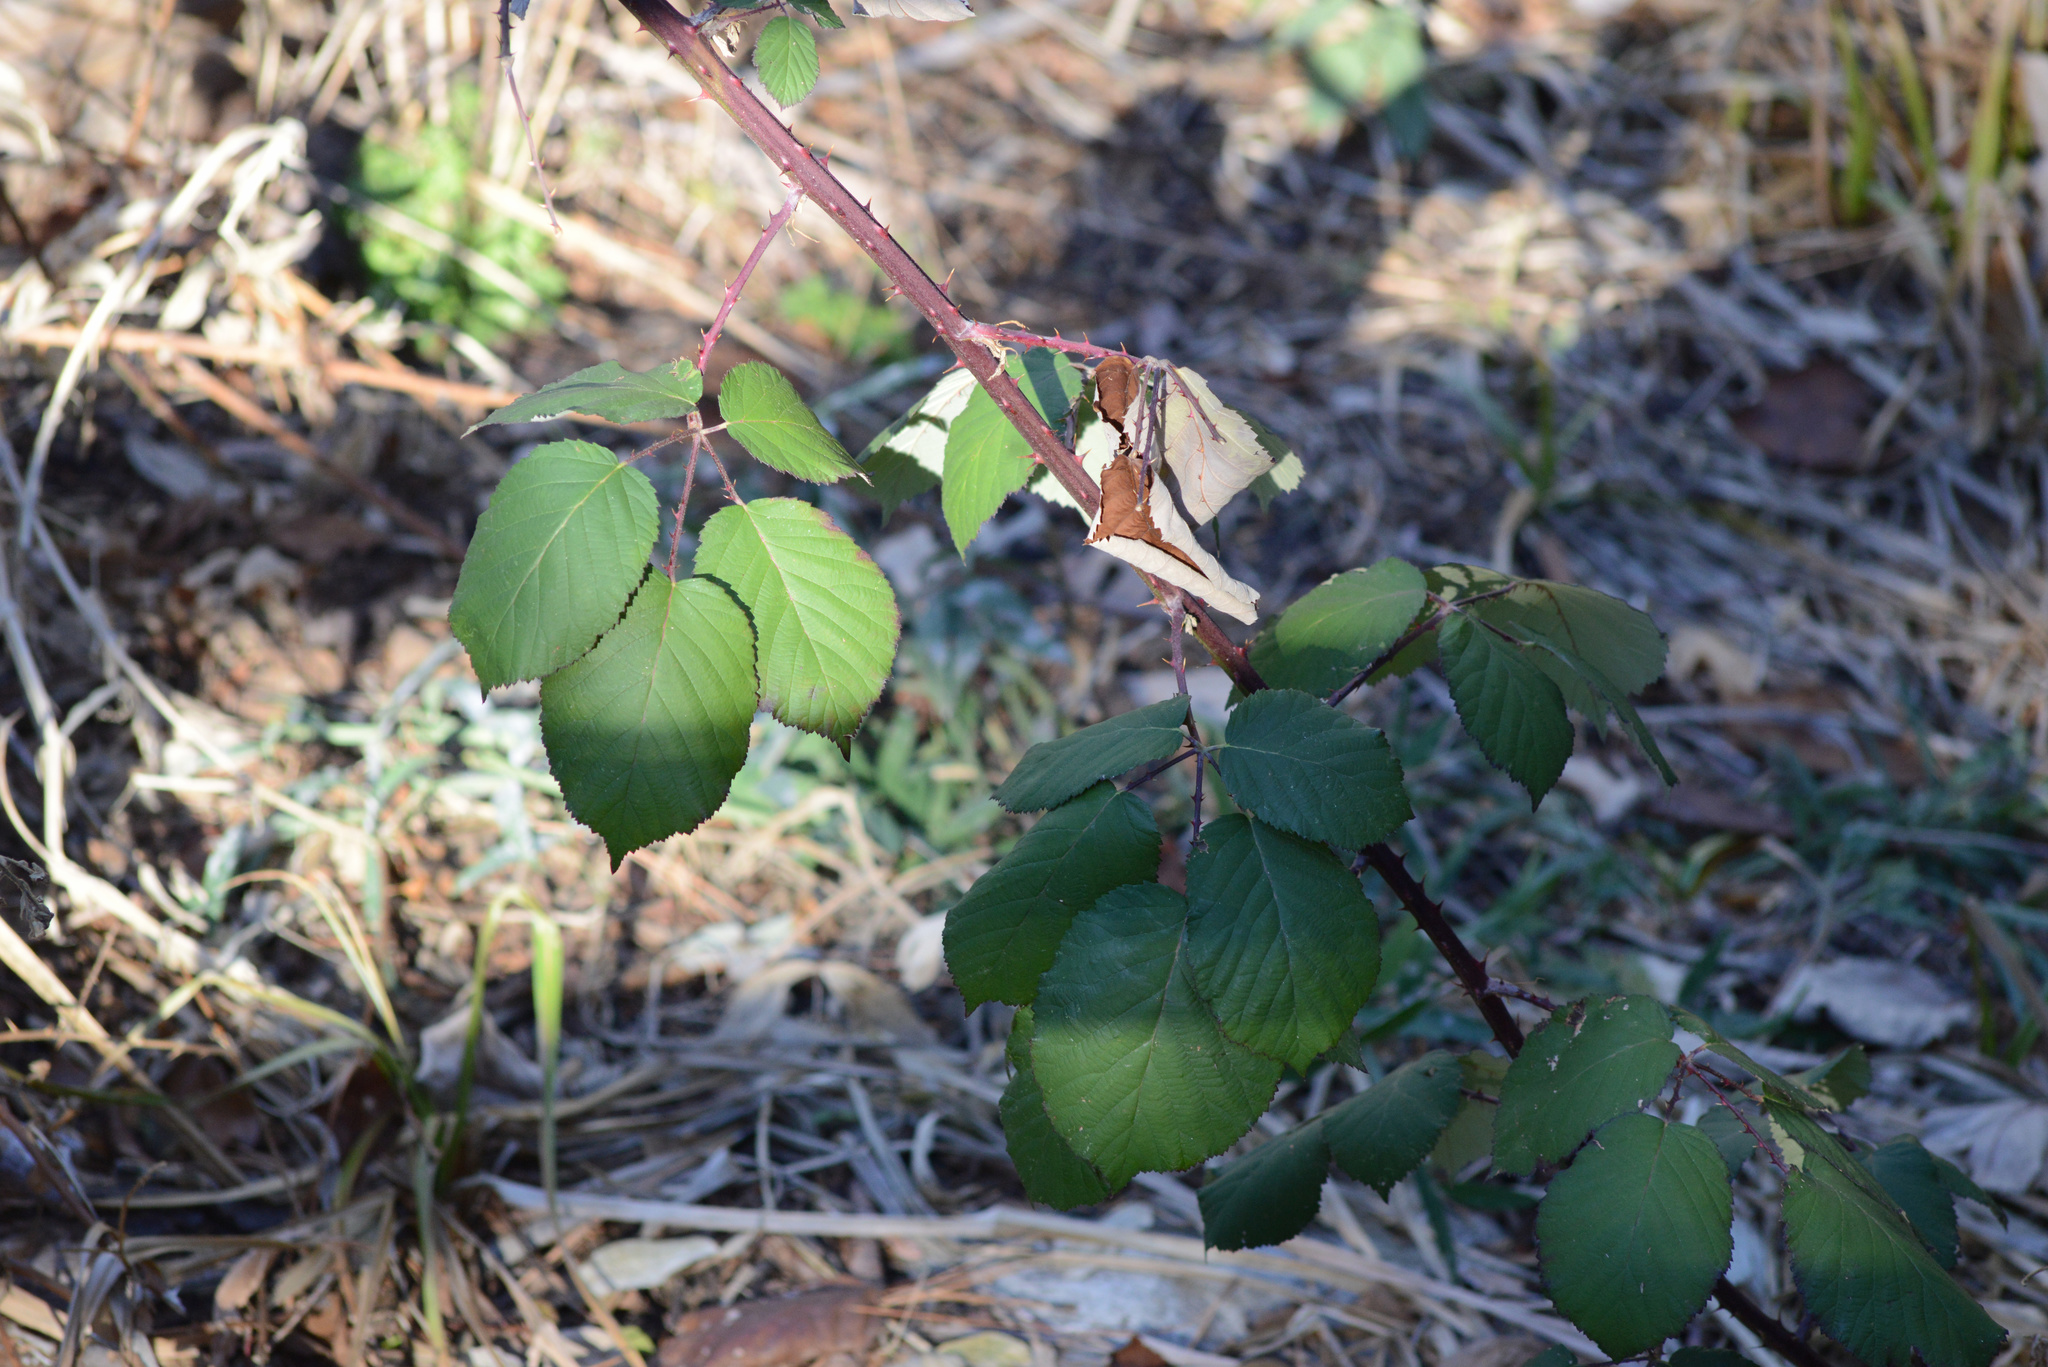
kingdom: Plantae
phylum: Tracheophyta
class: Magnoliopsida
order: Rosales
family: Rosaceae
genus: Rubus
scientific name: Rubus armeniacus
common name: Himalayan blackberry
